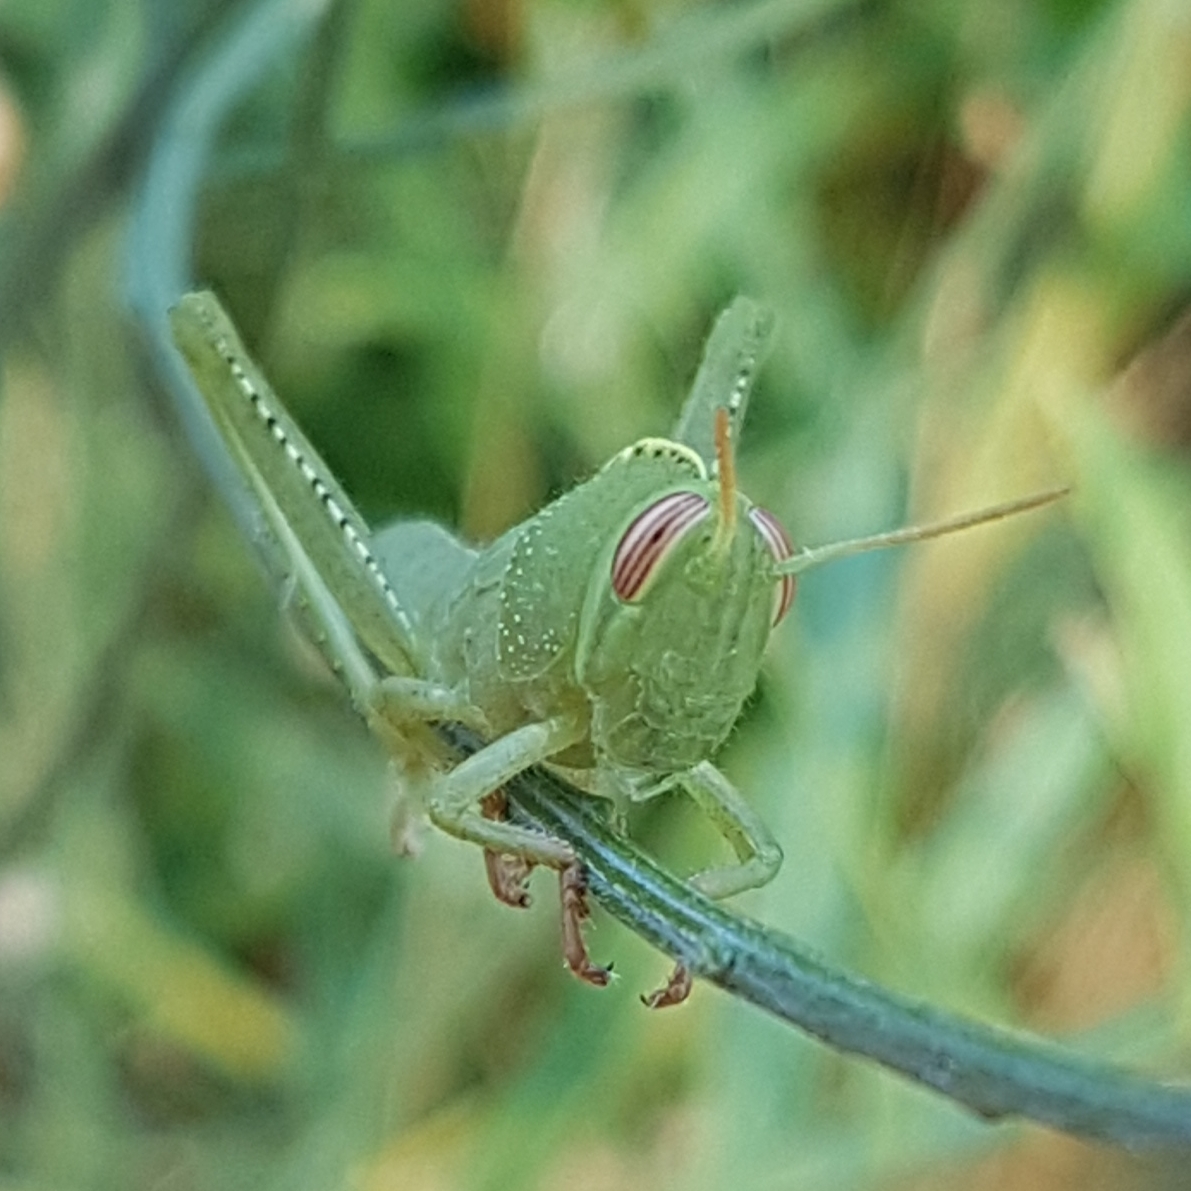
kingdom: Animalia
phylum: Arthropoda
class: Insecta
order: Orthoptera
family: Acrididae
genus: Anacridium
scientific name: Anacridium aegyptium
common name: Egyptian grasshopper
